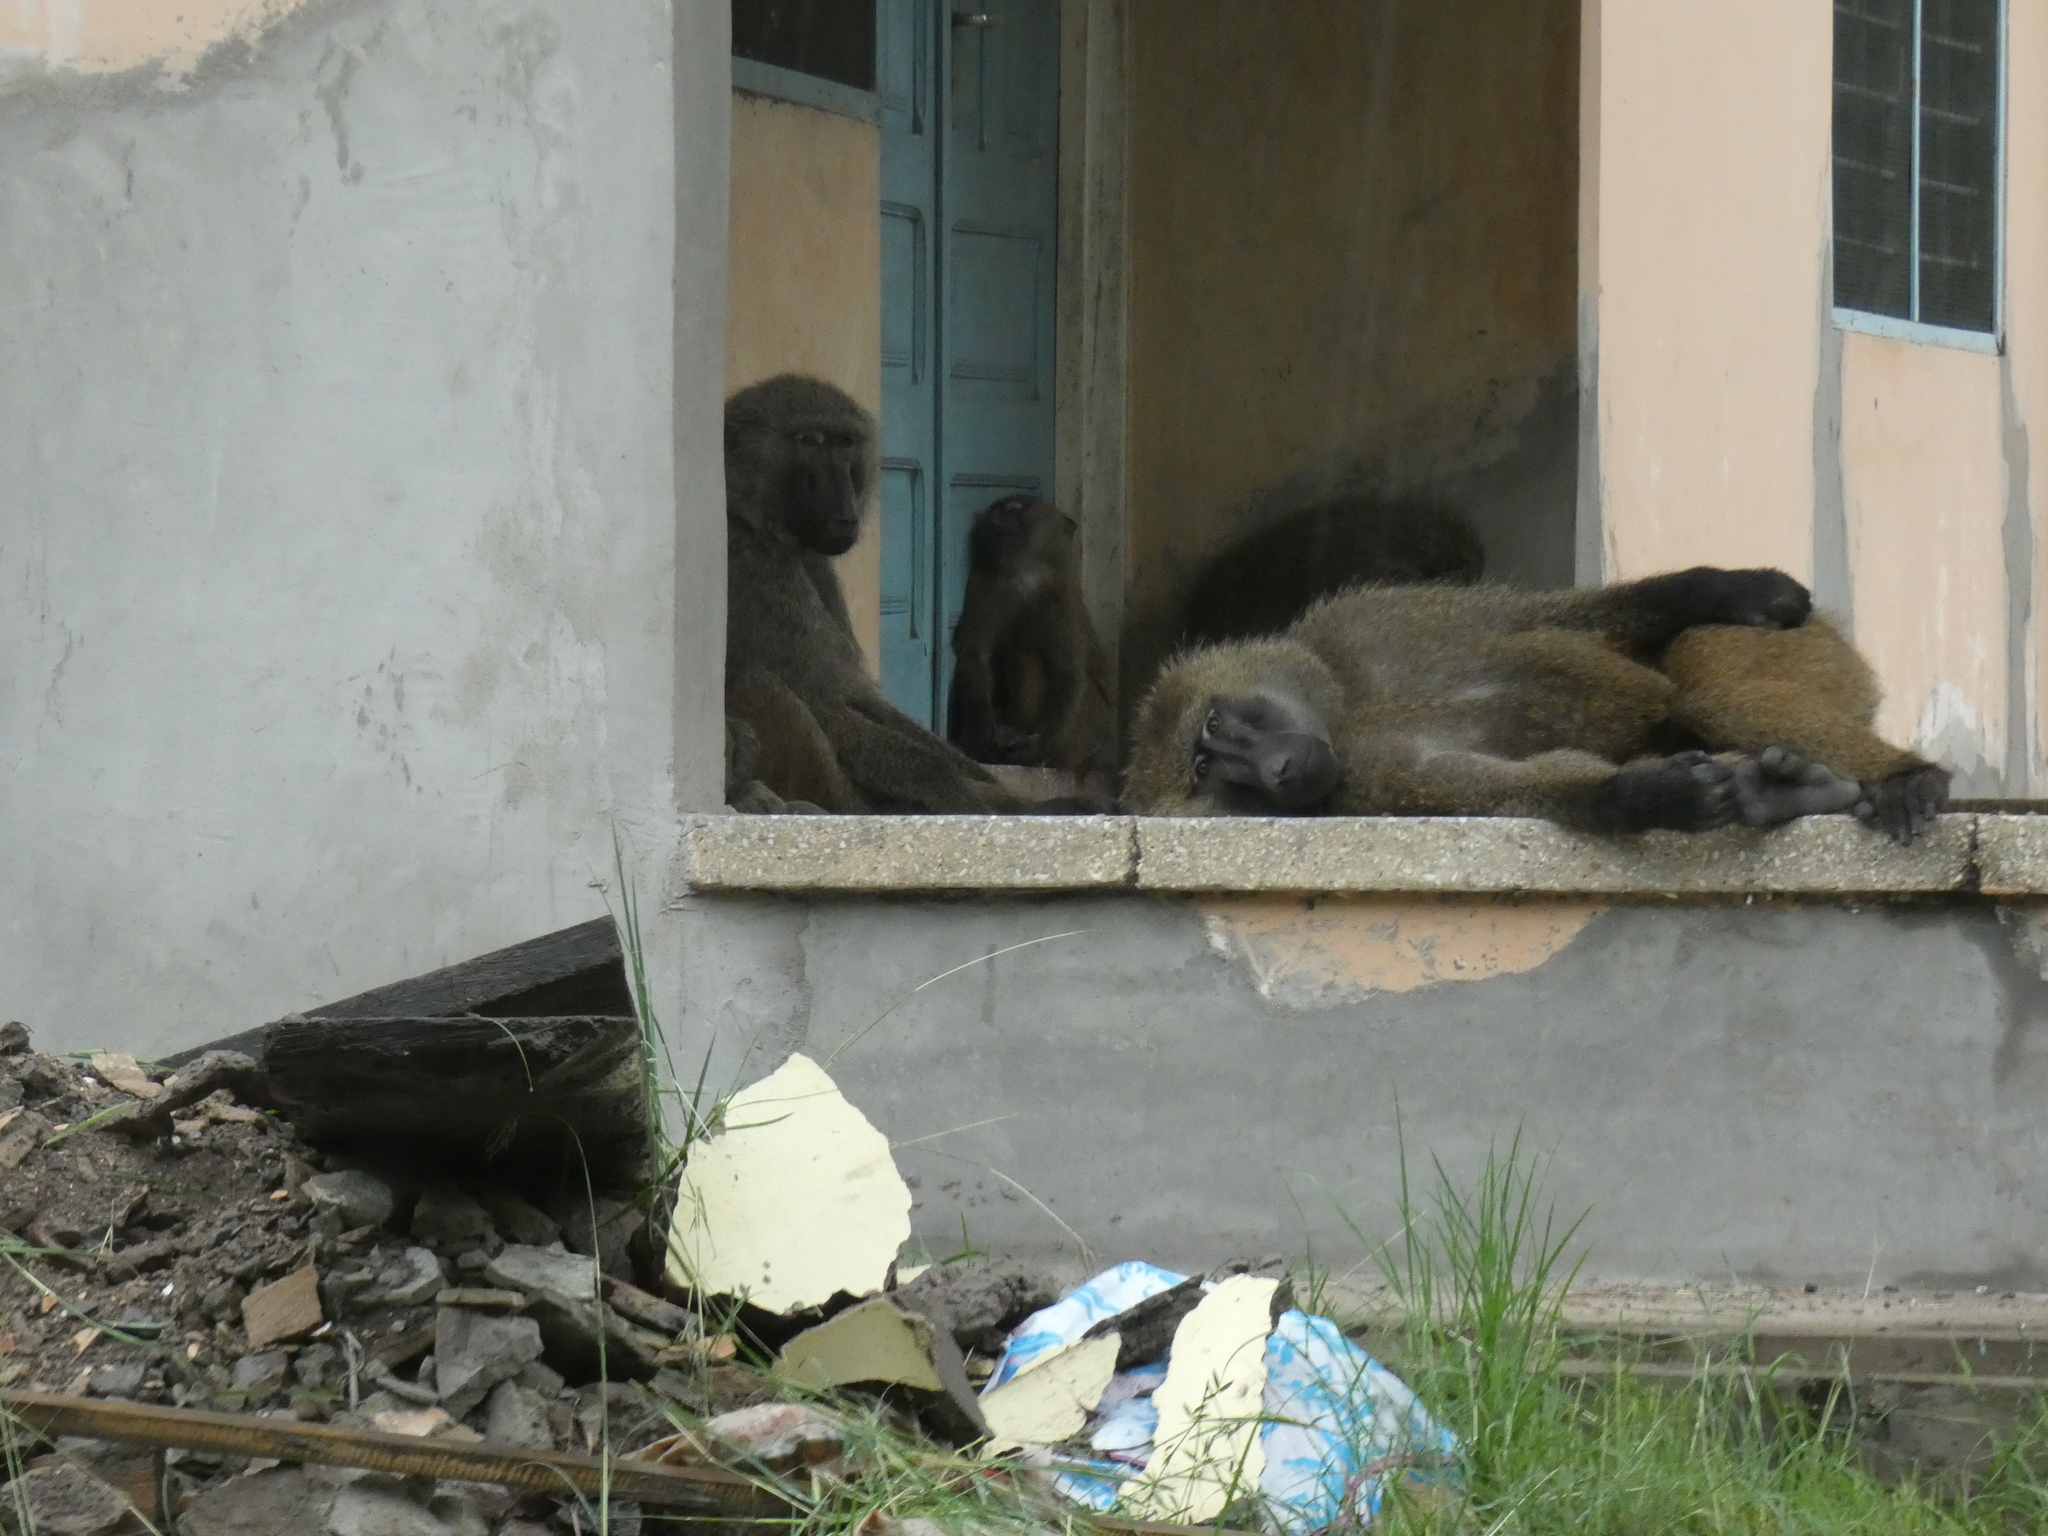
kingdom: Animalia
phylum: Chordata
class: Mammalia
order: Primates
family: Cercopithecidae
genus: Papio
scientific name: Papio anubis
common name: Olive baboon
